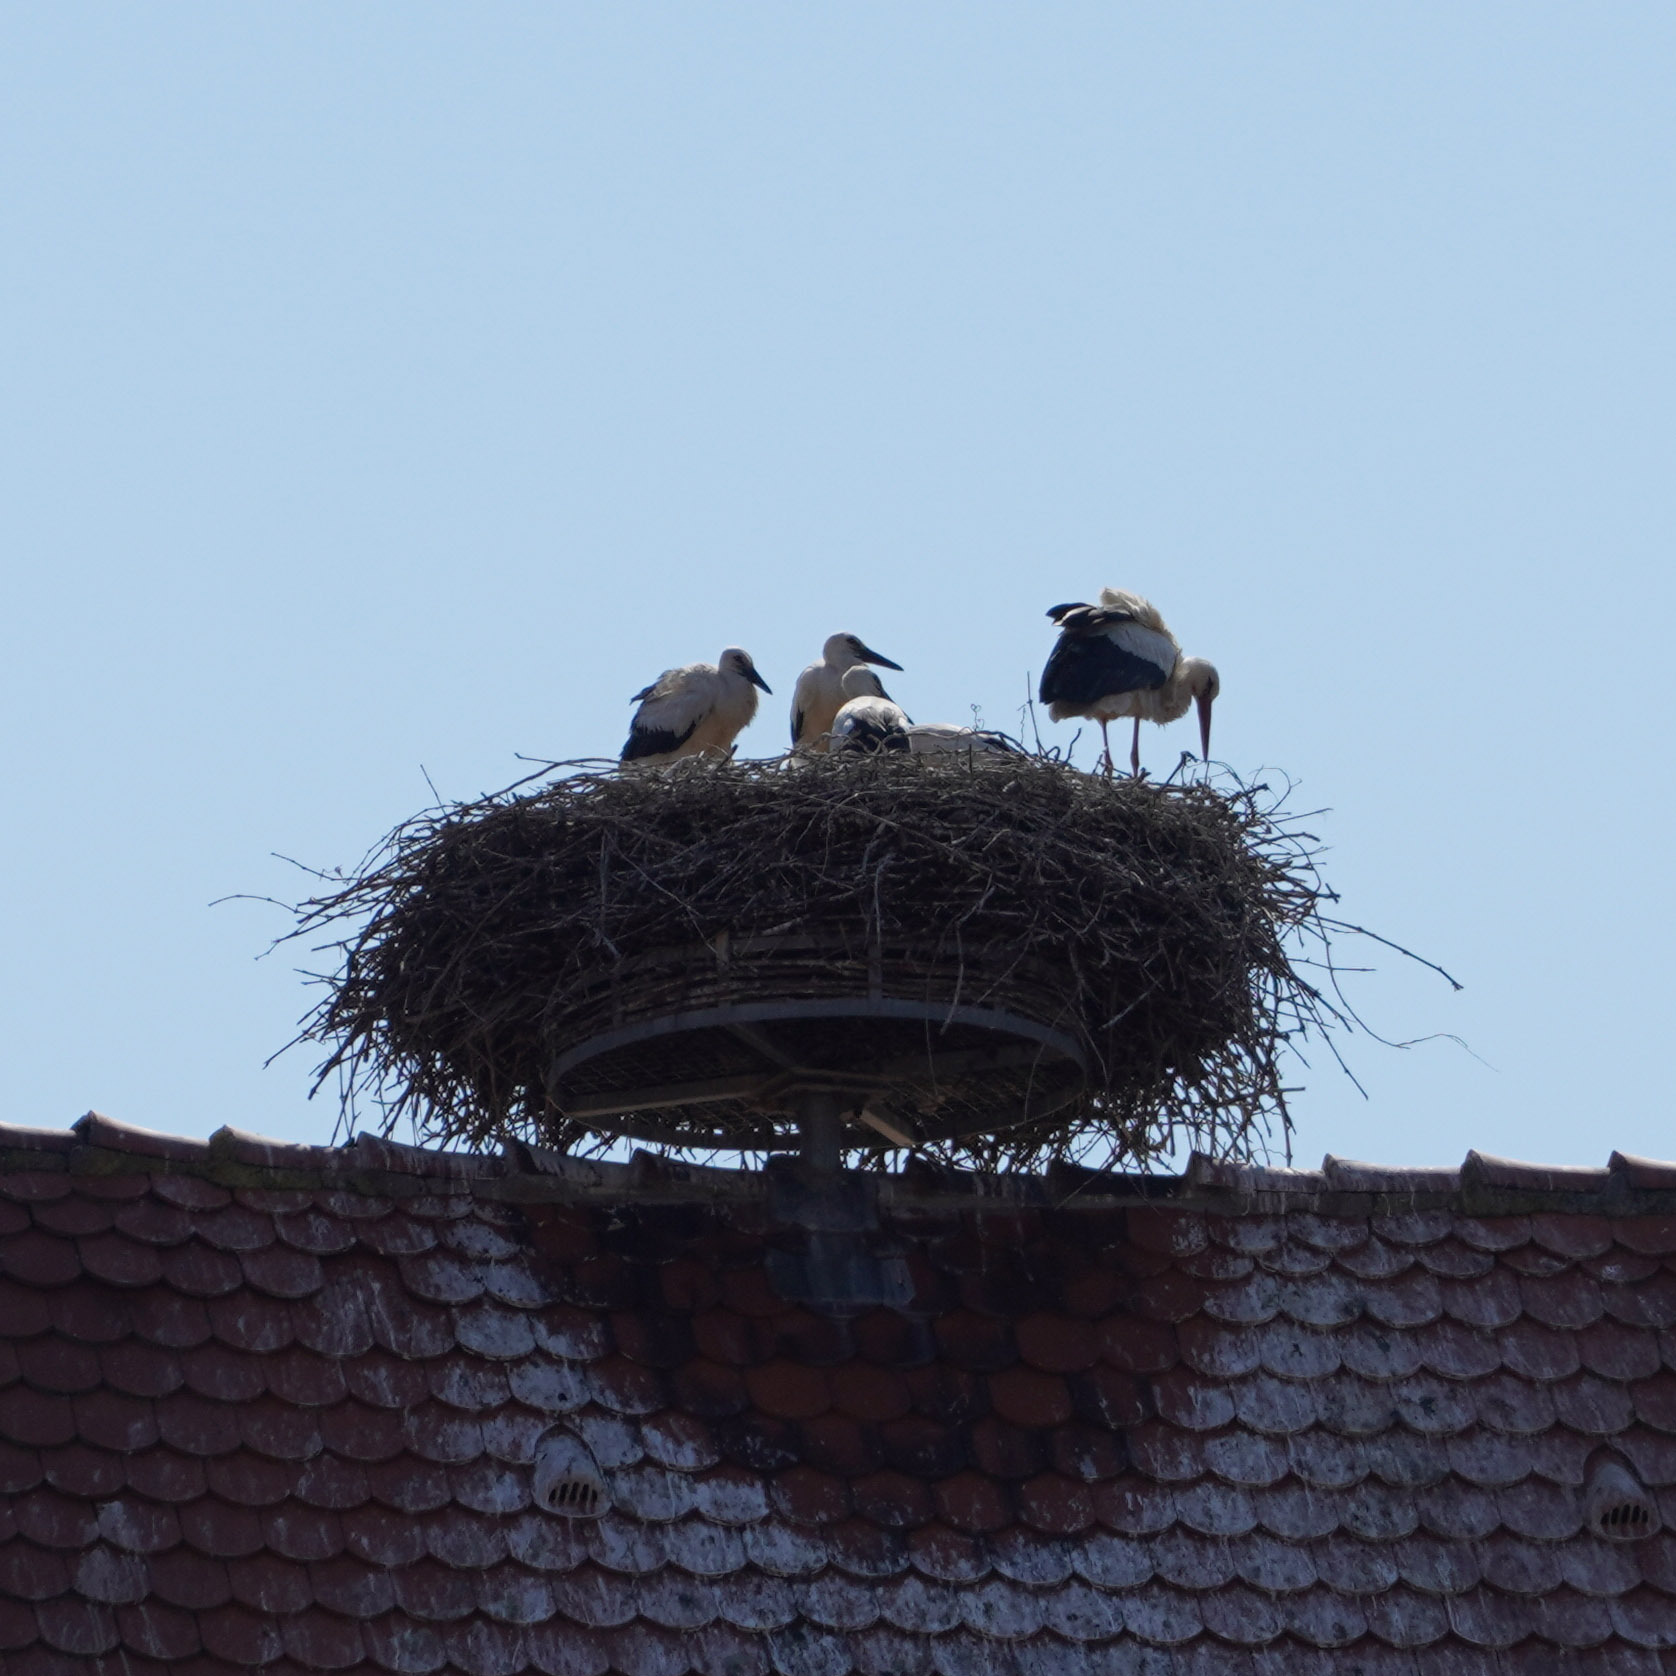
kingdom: Animalia
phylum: Chordata
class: Aves
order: Ciconiiformes
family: Ciconiidae
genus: Ciconia
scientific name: Ciconia ciconia
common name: White stork
